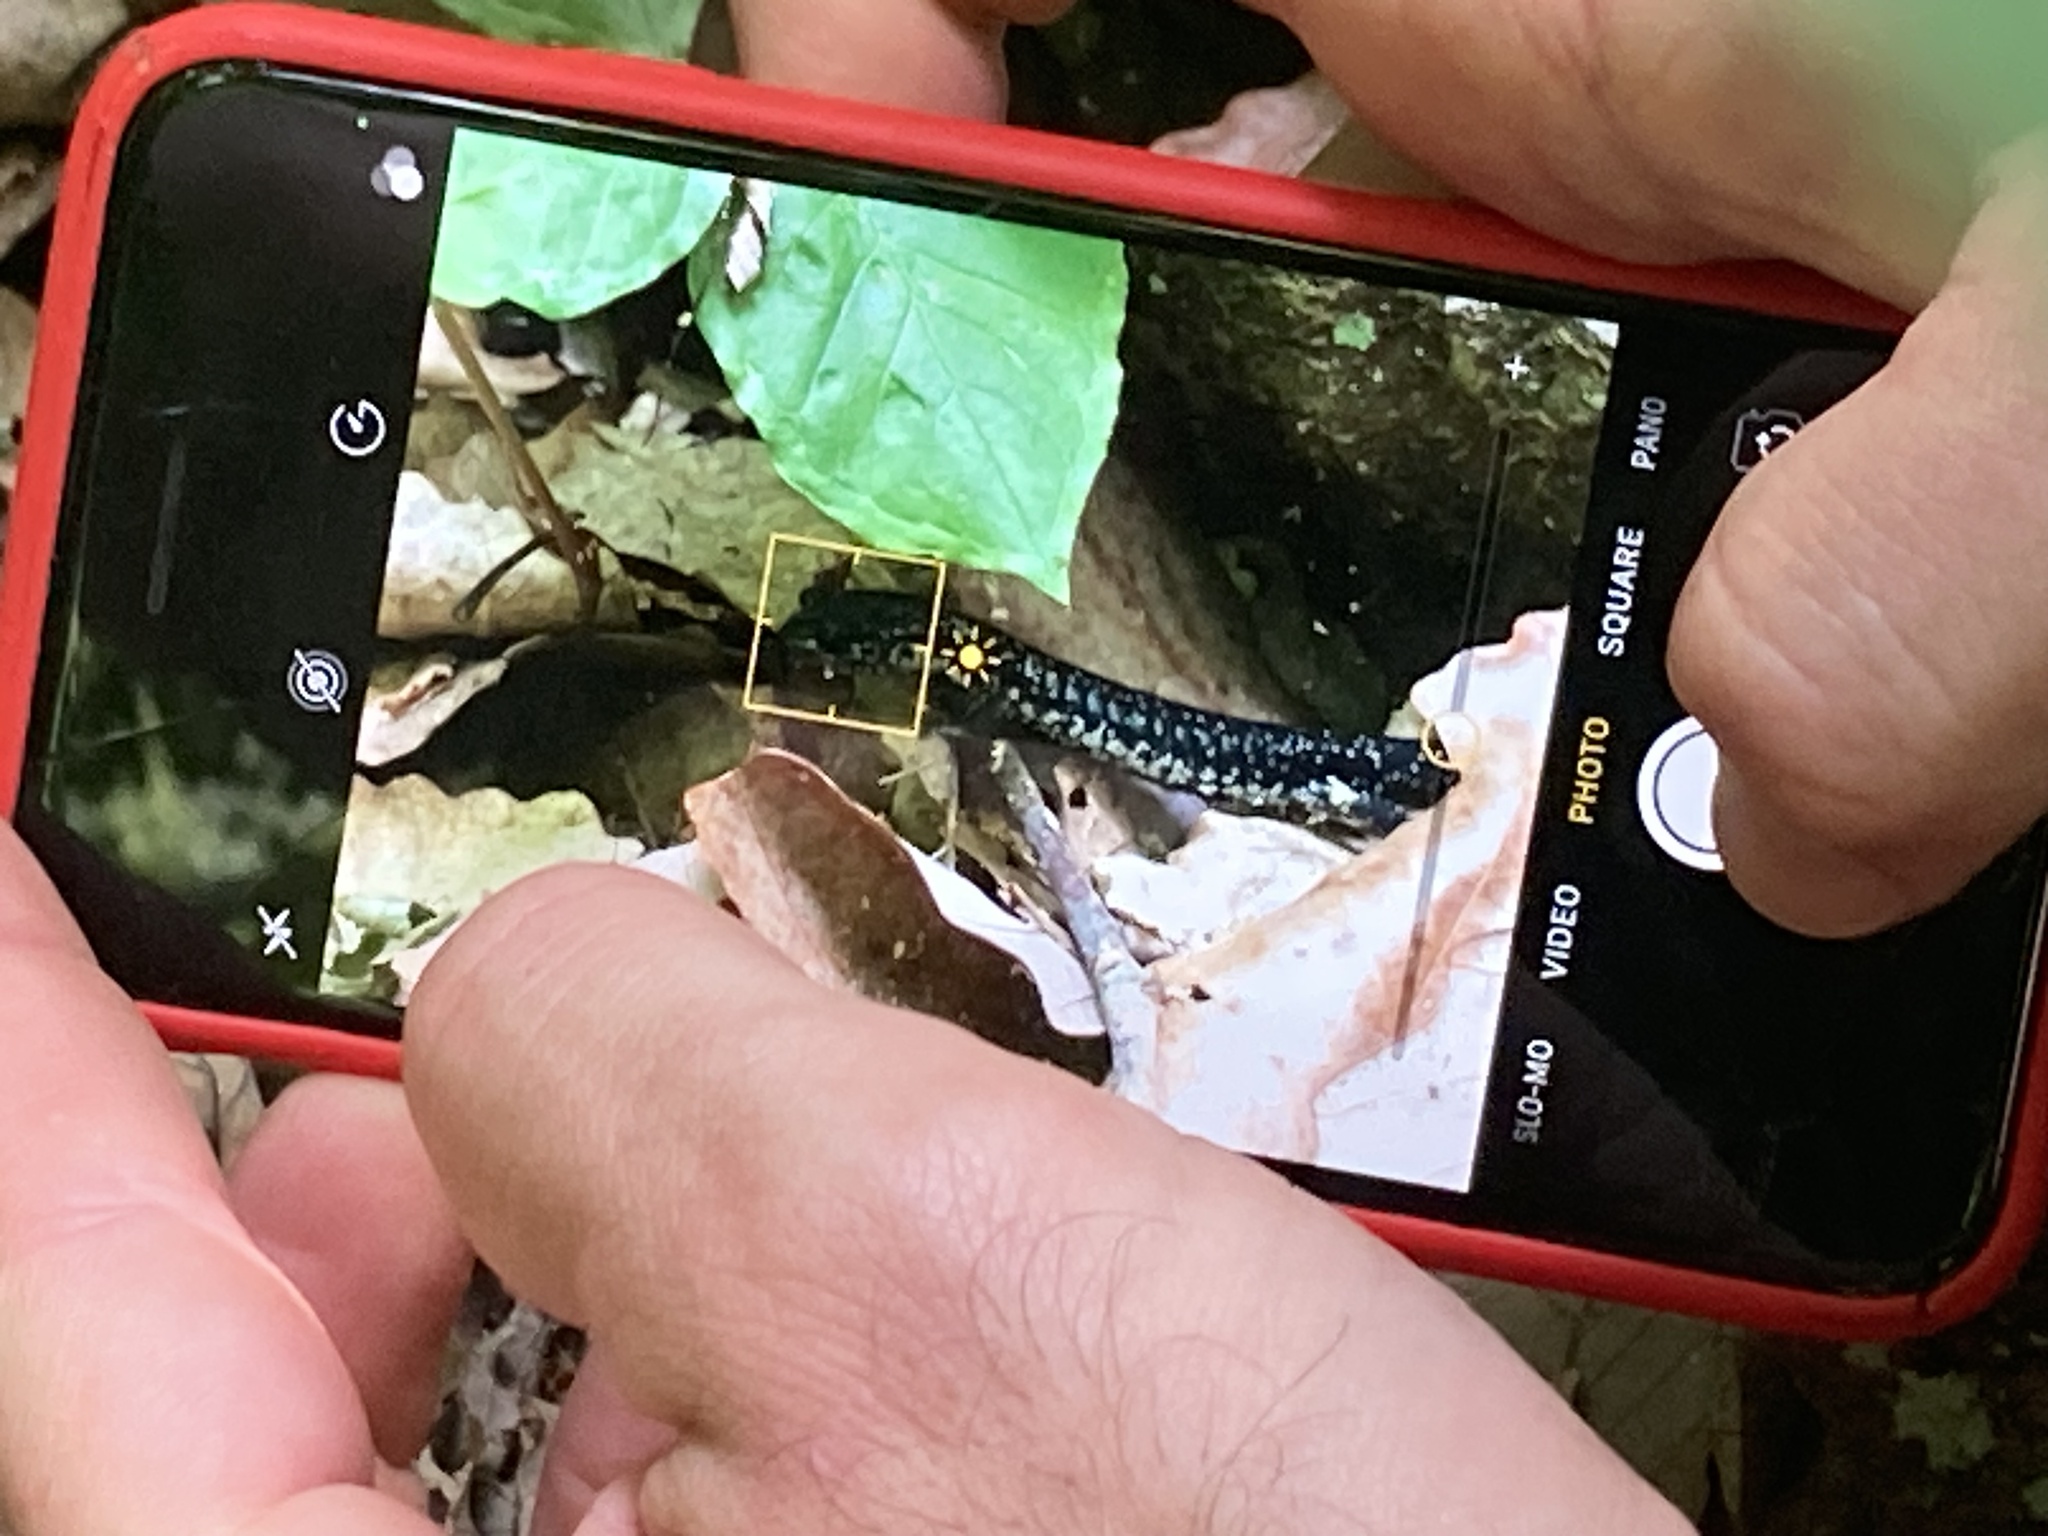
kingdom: Animalia
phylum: Chordata
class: Amphibia
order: Caudata
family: Plethodontidae
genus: Plethodon
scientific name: Plethodon glutinosus
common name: Northern slimy salamander
